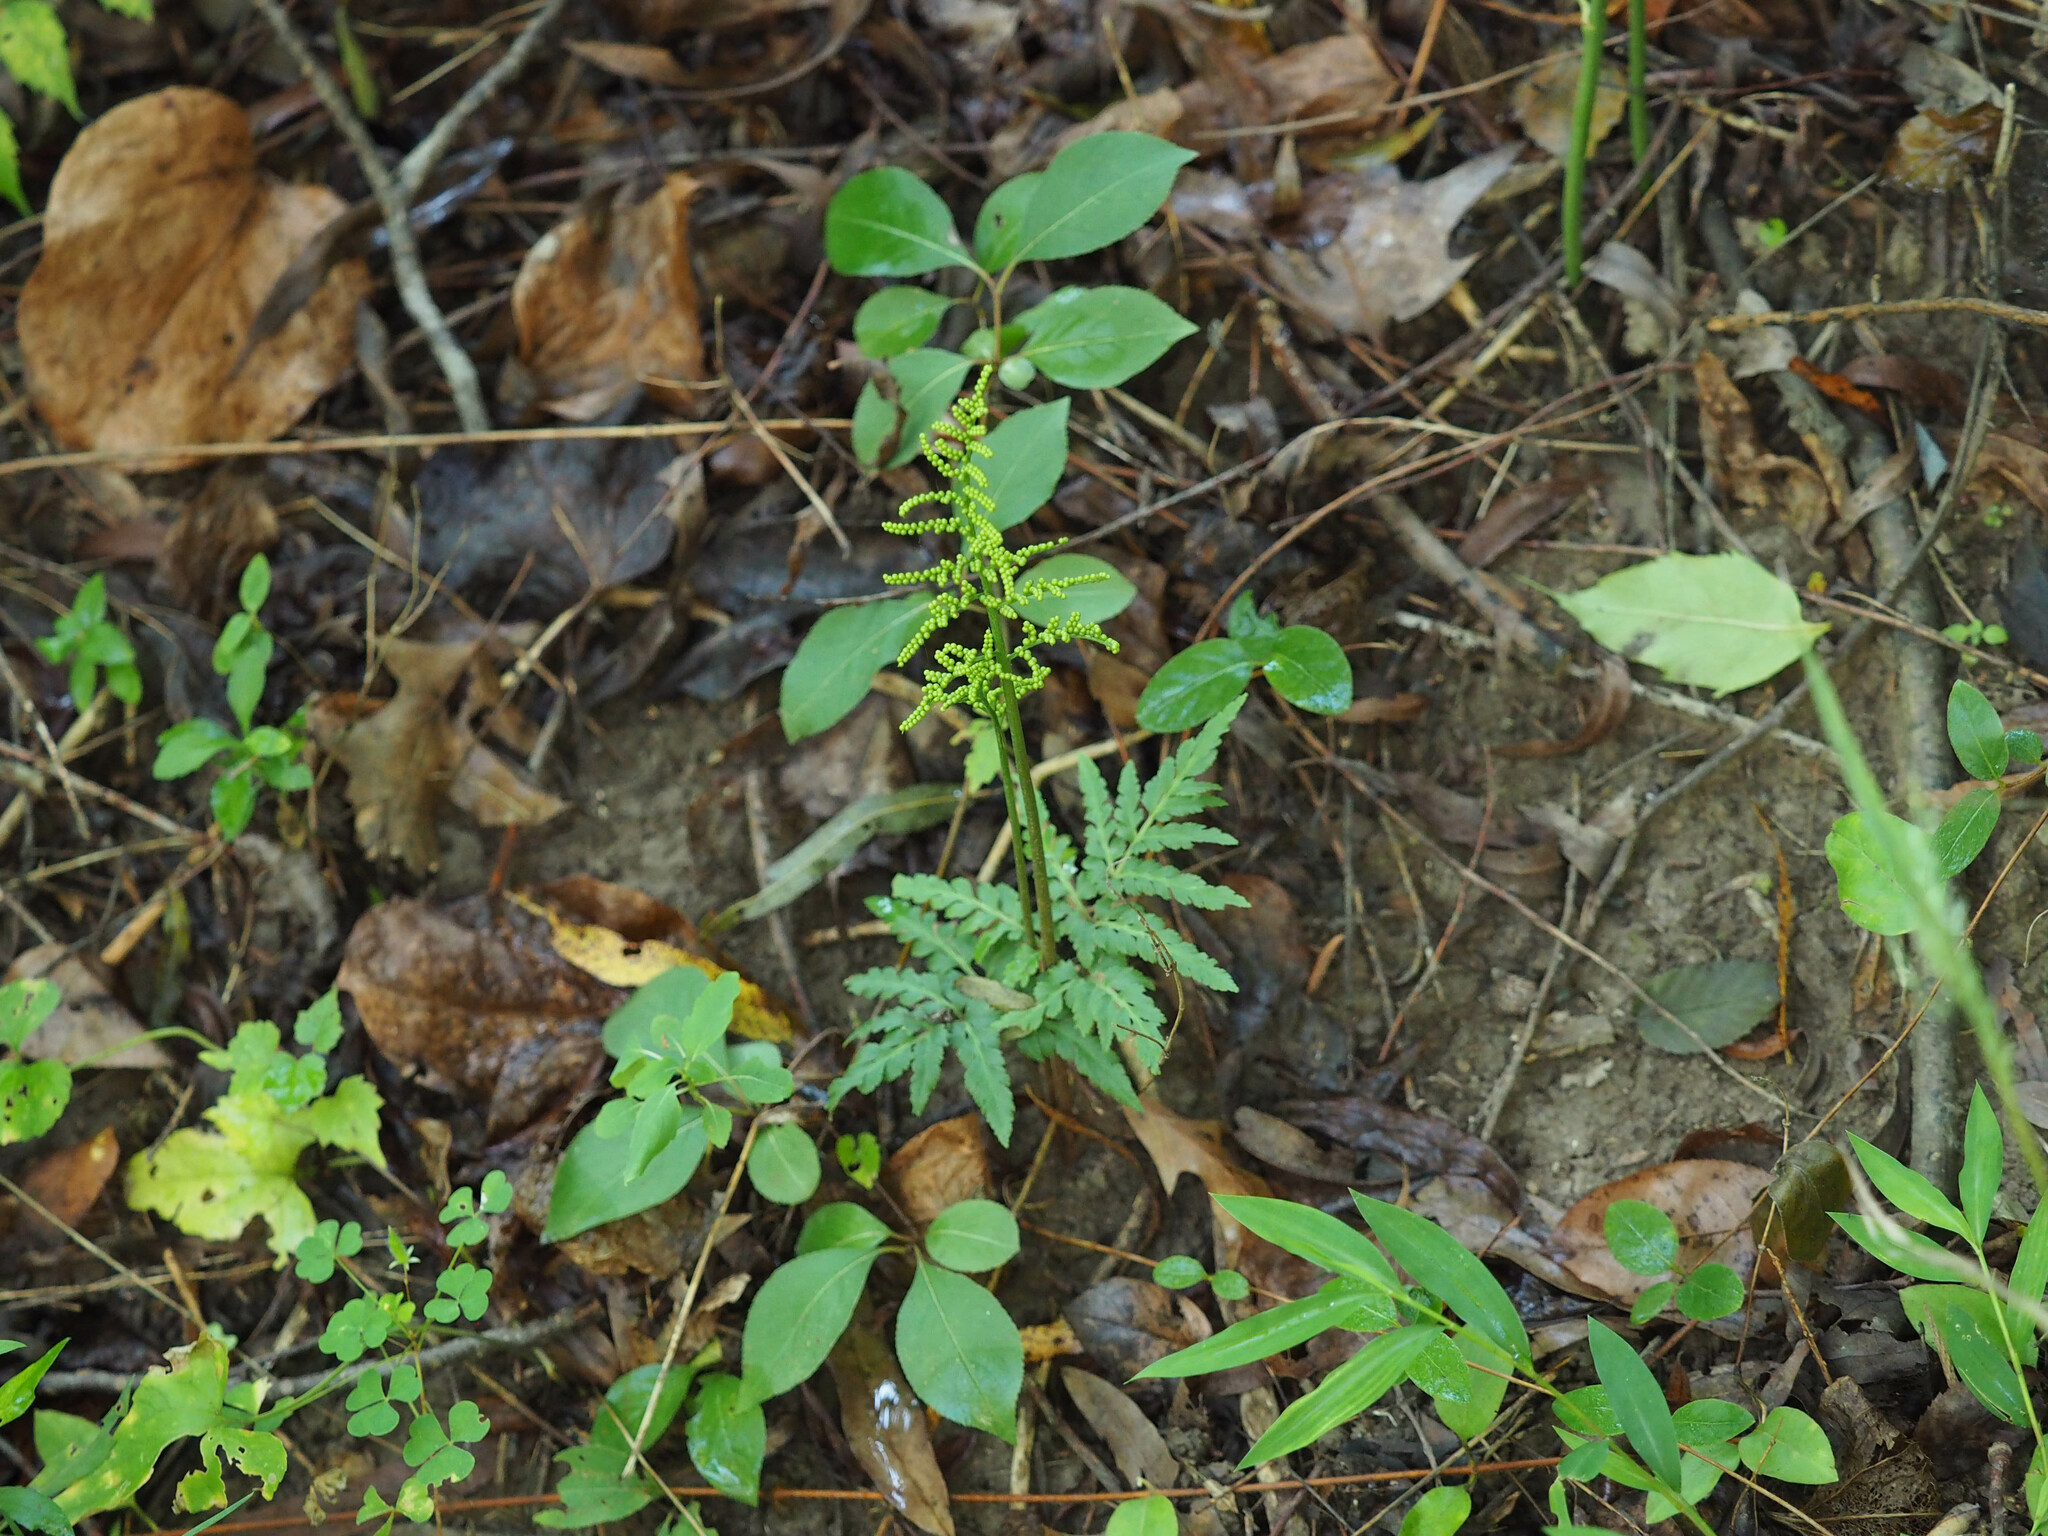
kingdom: Plantae
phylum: Tracheophyta
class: Polypodiopsida
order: Ophioglossales
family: Ophioglossaceae
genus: Sceptridium
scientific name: Sceptridium dissectum
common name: Cut-leaved grapefern
